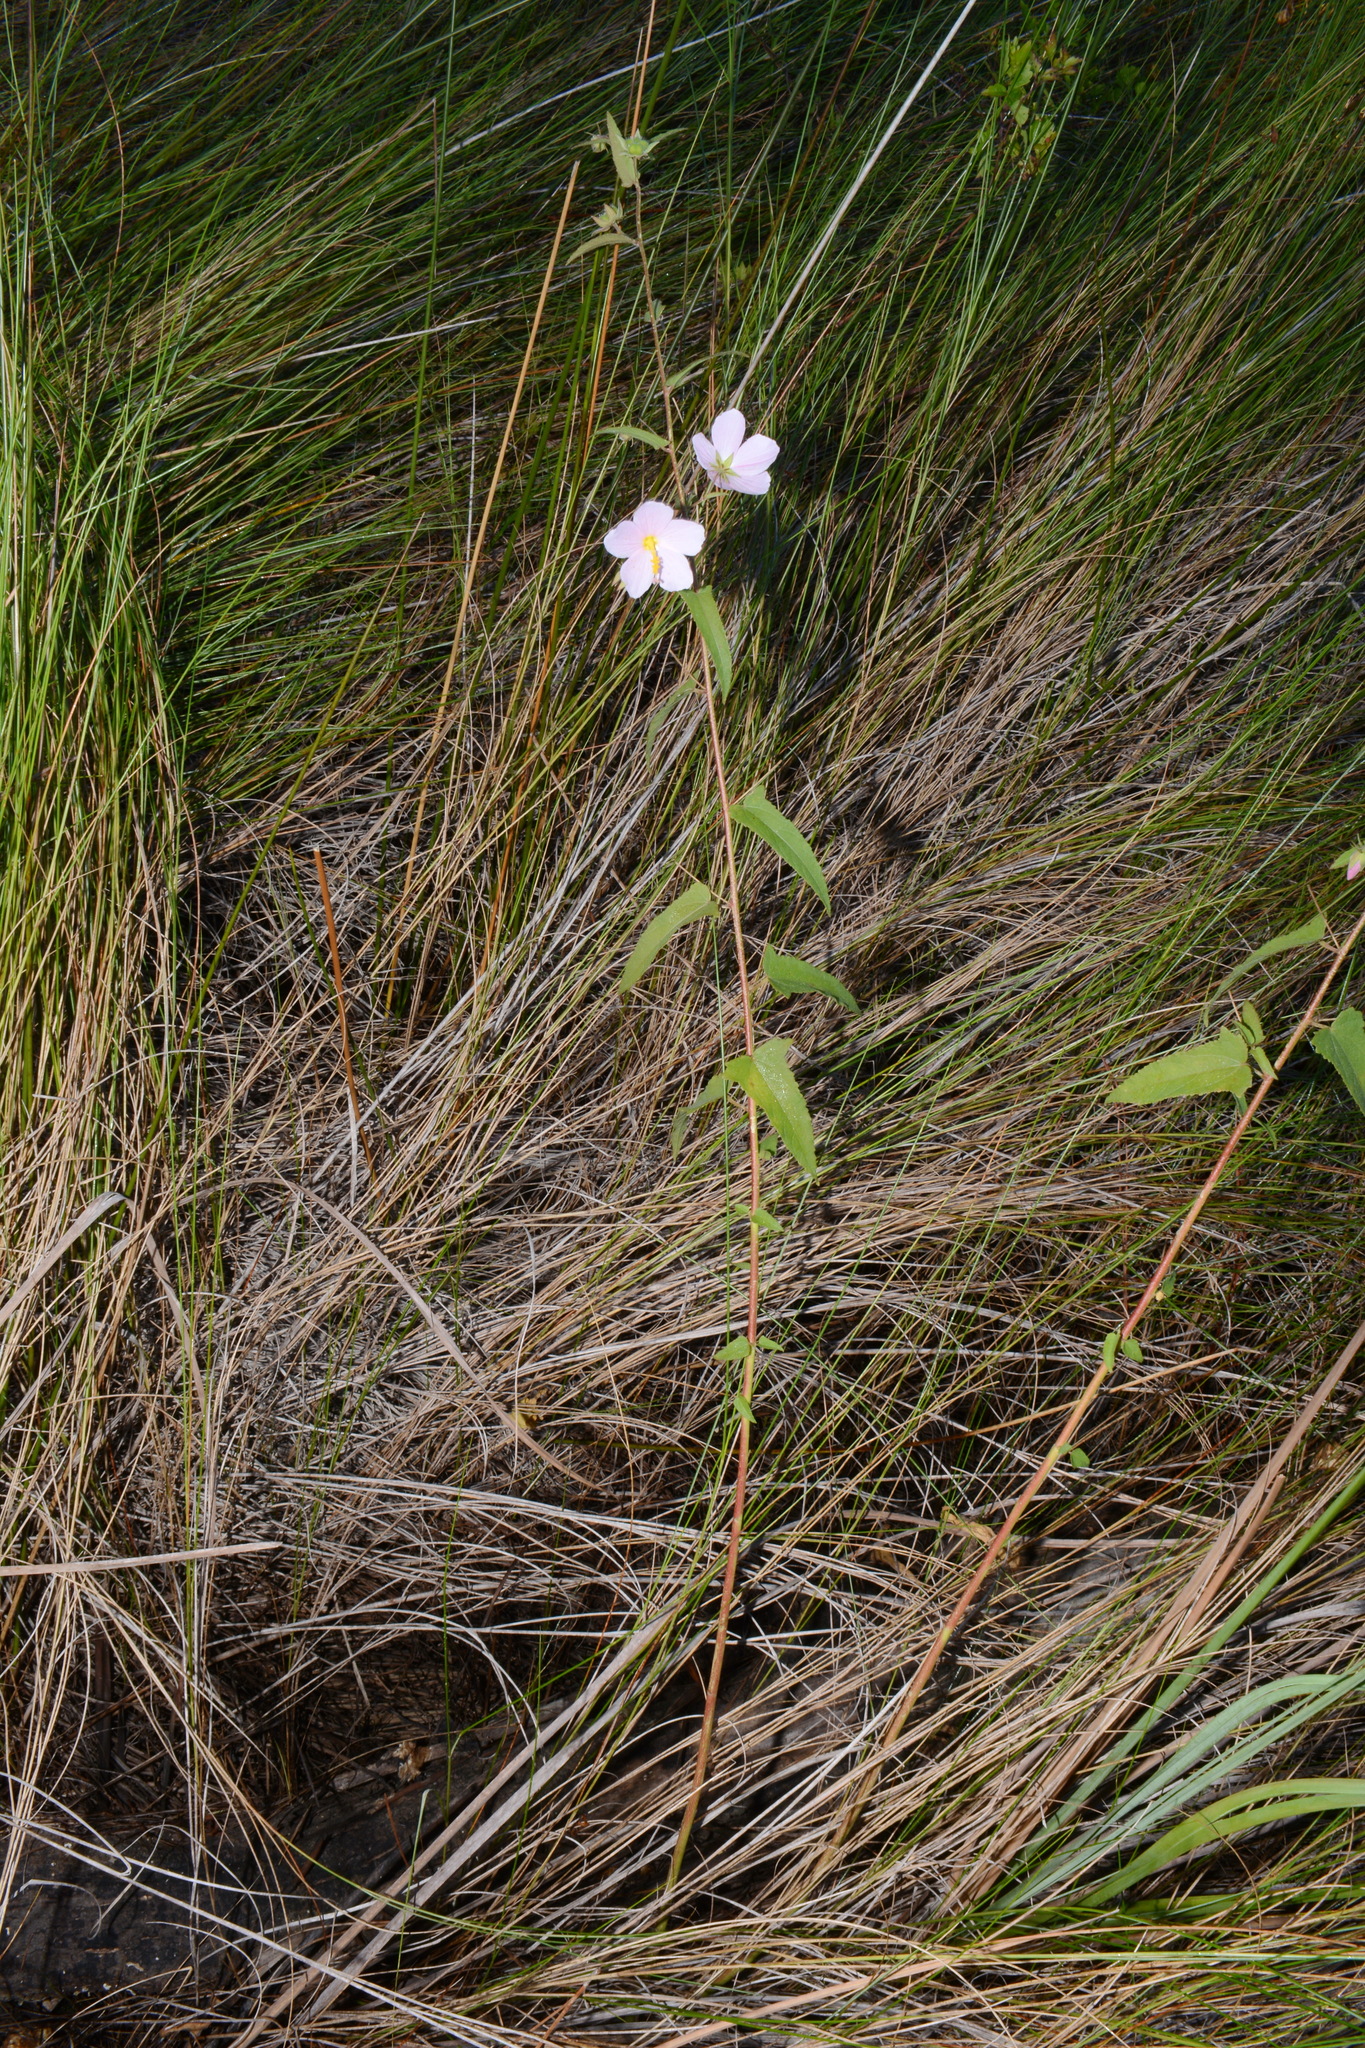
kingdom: Plantae
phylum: Tracheophyta
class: Magnoliopsida
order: Malvales
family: Malvaceae
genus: Kosteletzkya
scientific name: Kosteletzkya pentacarpos
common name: Virginia saltmarsh mallow
